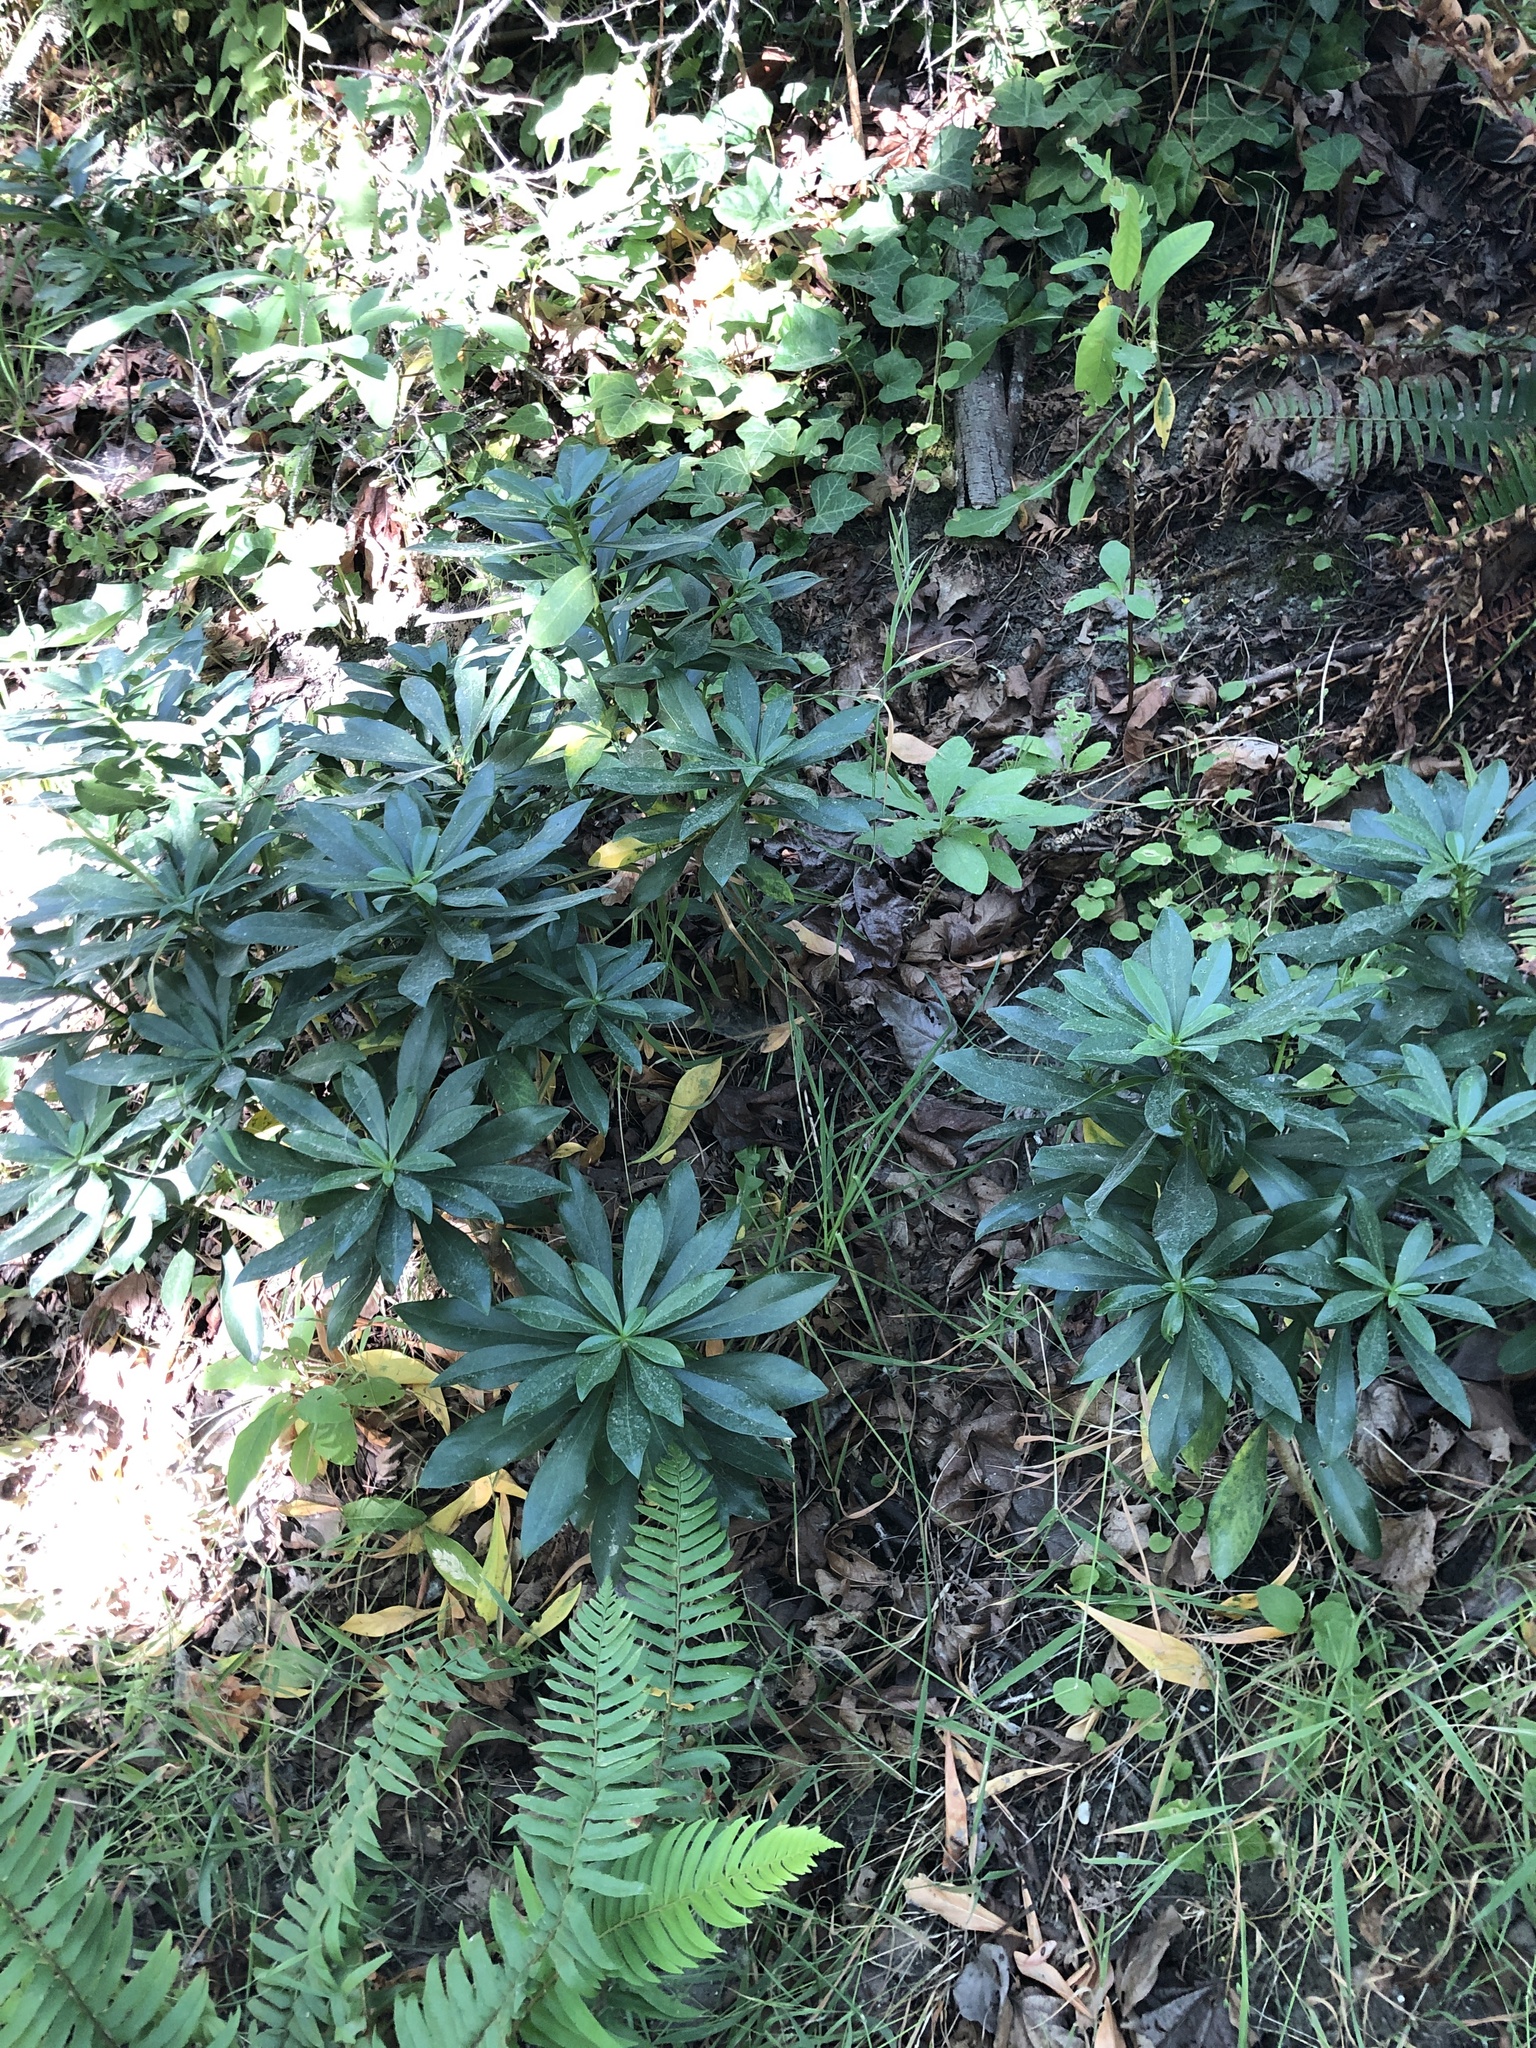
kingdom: Plantae
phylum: Tracheophyta
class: Magnoliopsida
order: Malvales
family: Thymelaeaceae
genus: Daphne
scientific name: Daphne laureola
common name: Spurge-laurel
